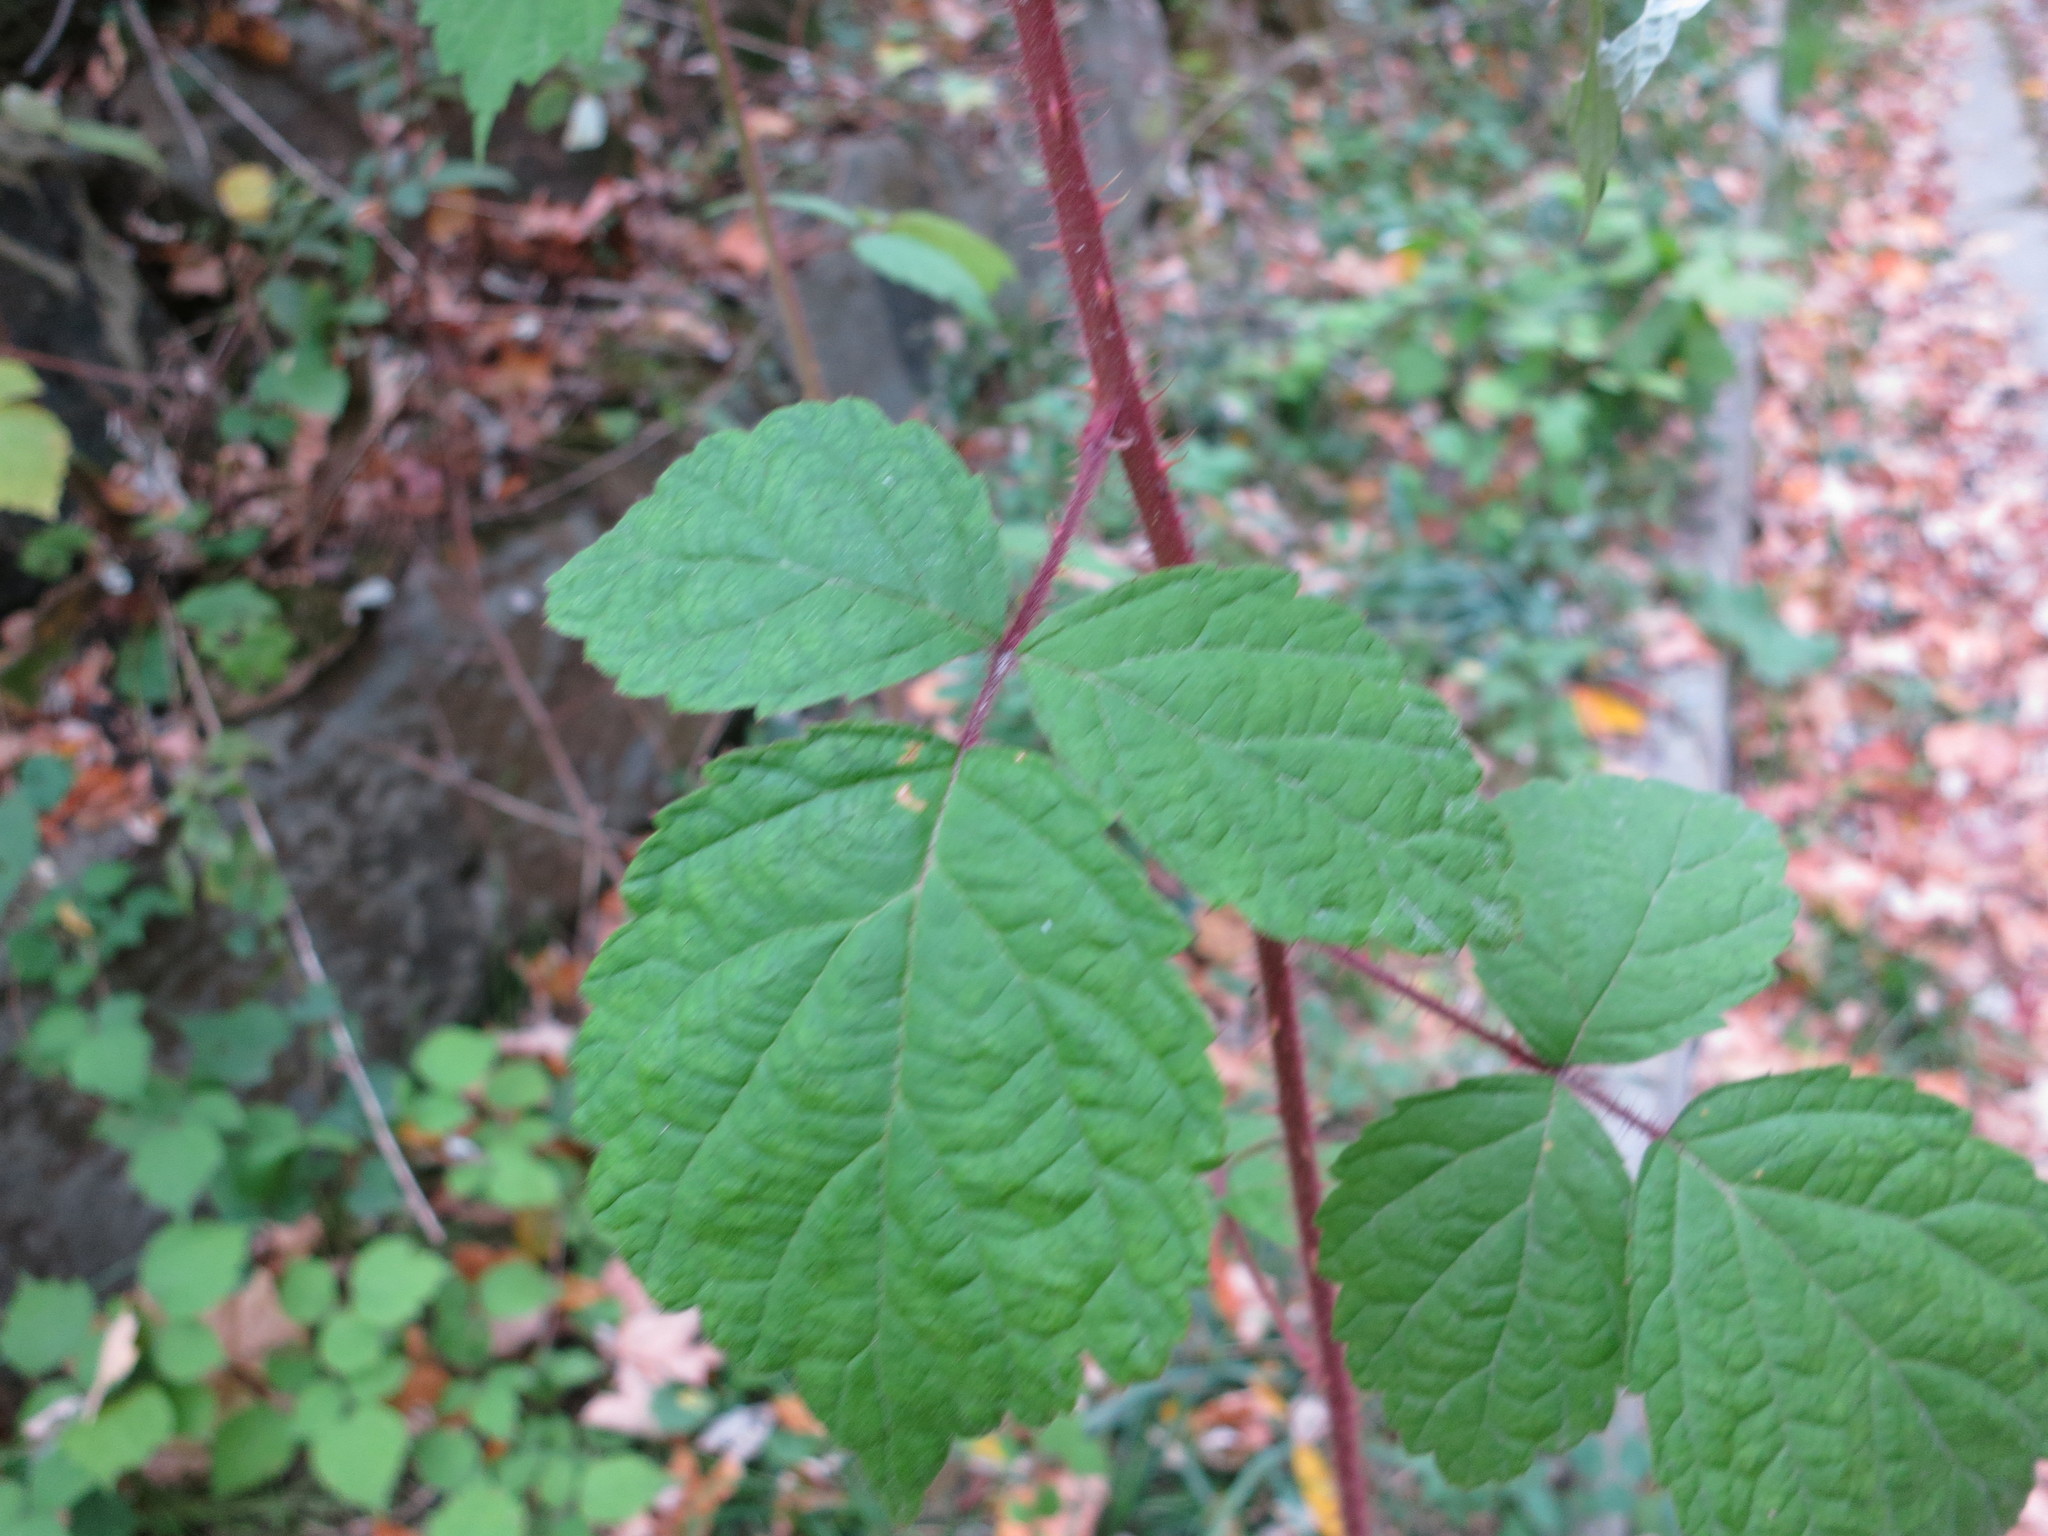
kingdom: Plantae
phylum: Tracheophyta
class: Magnoliopsida
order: Rosales
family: Rosaceae
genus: Rubus
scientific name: Rubus phoenicolasius
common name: Japanese wineberry
